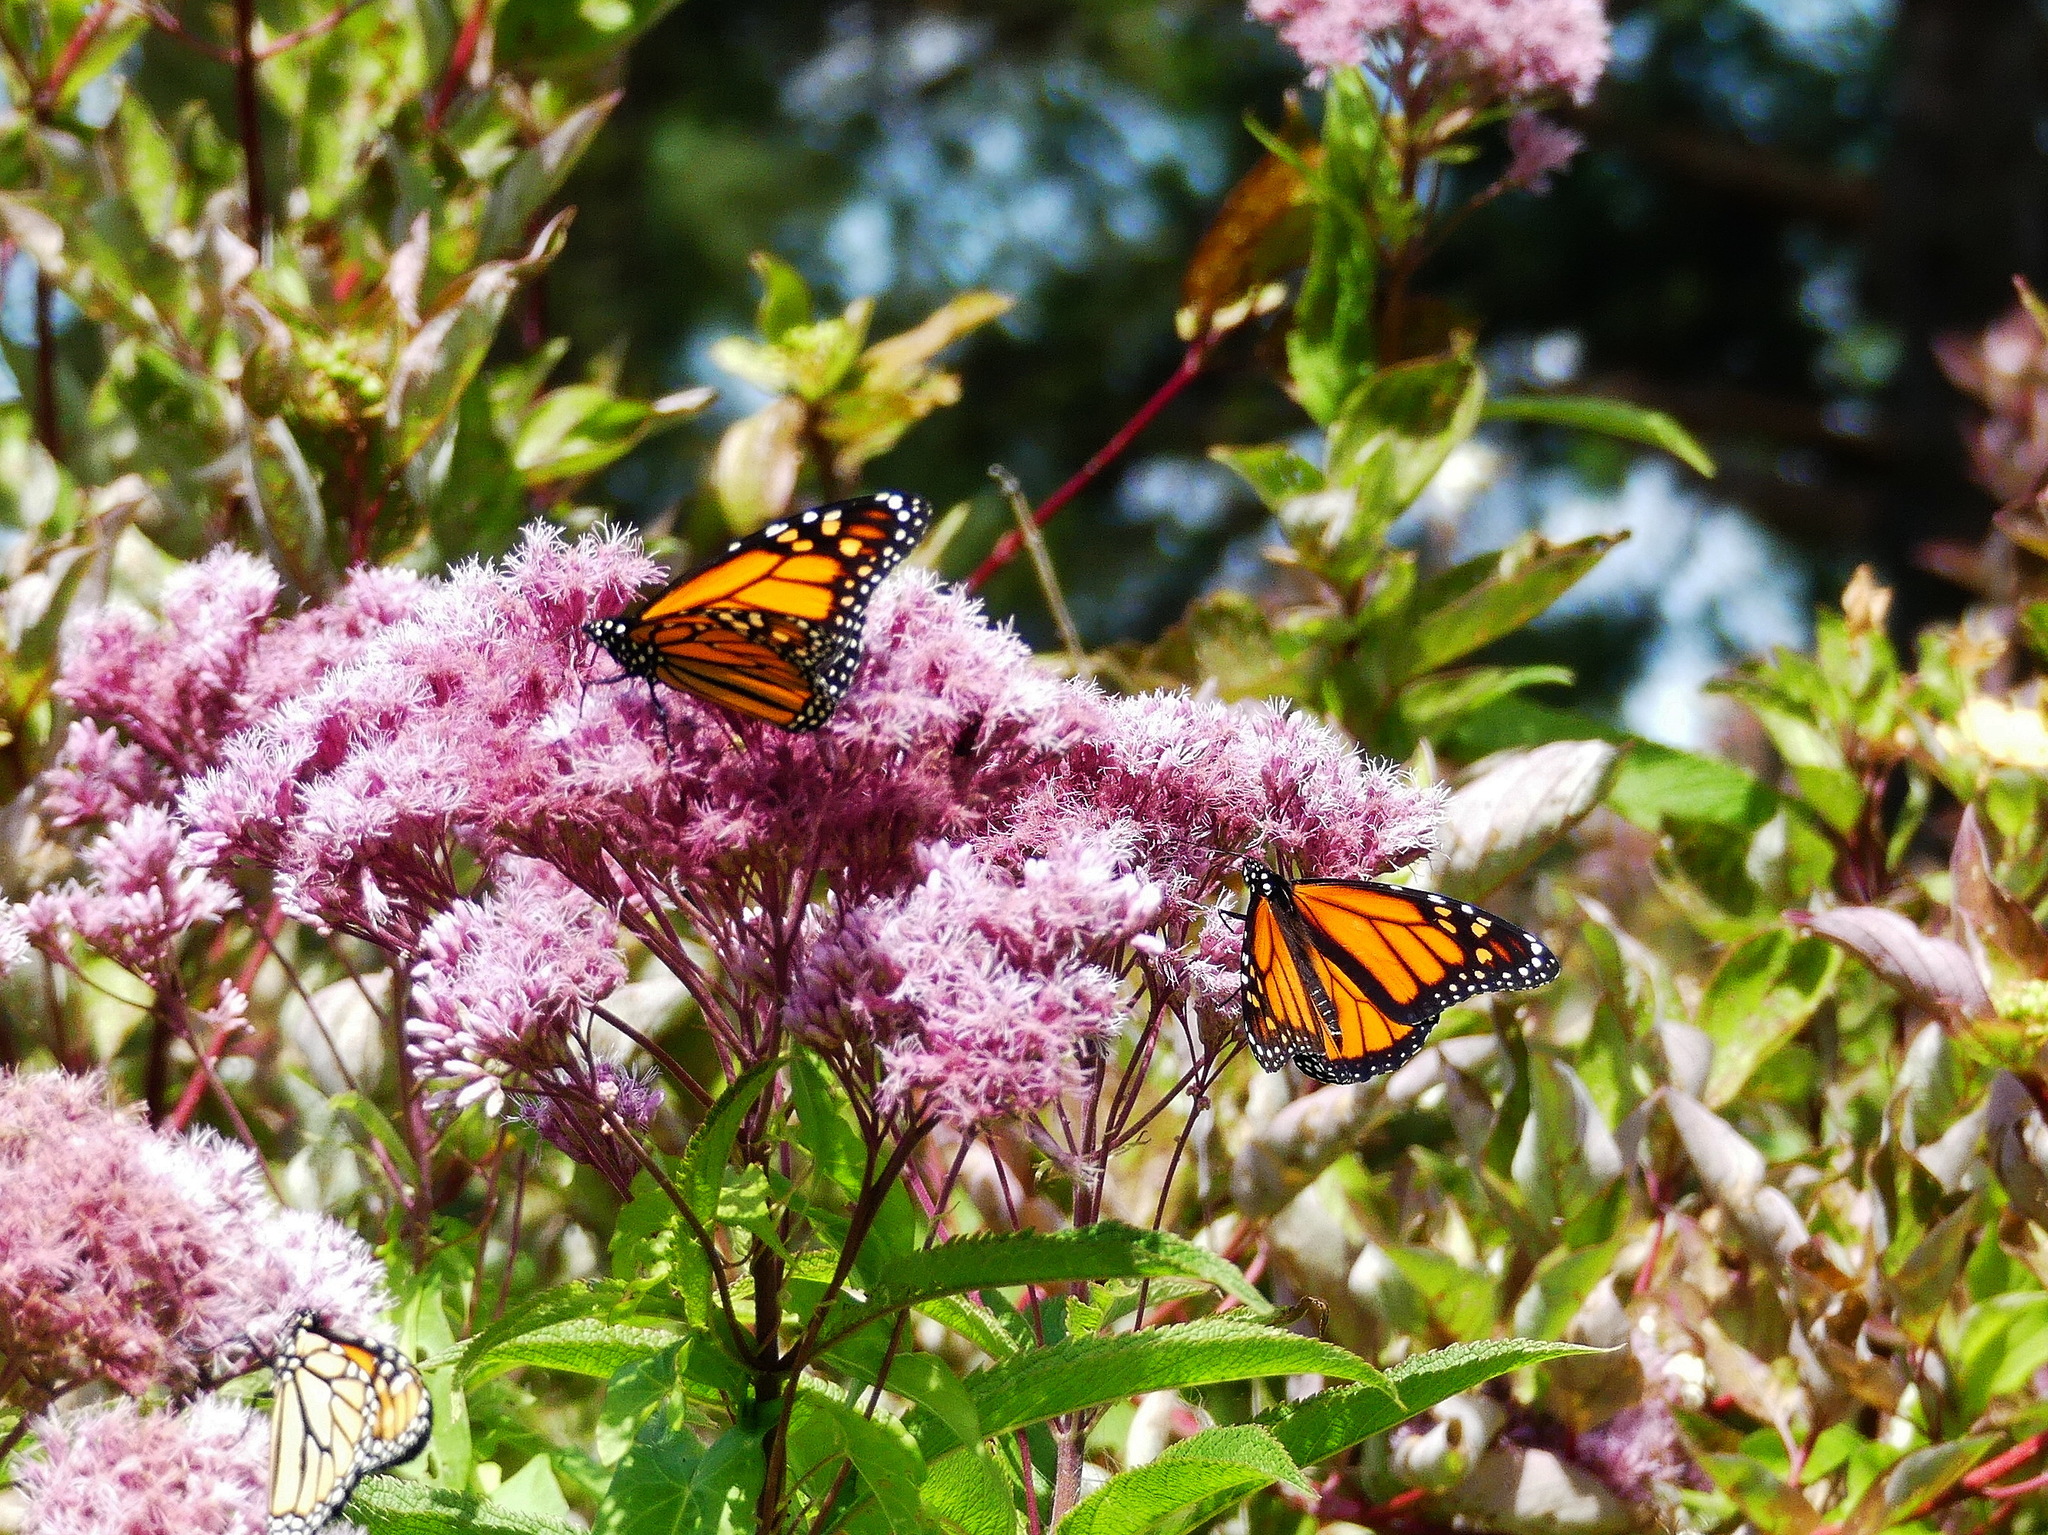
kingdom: Animalia
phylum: Arthropoda
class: Insecta
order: Lepidoptera
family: Nymphalidae
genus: Danaus
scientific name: Danaus plexippus
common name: Monarch
